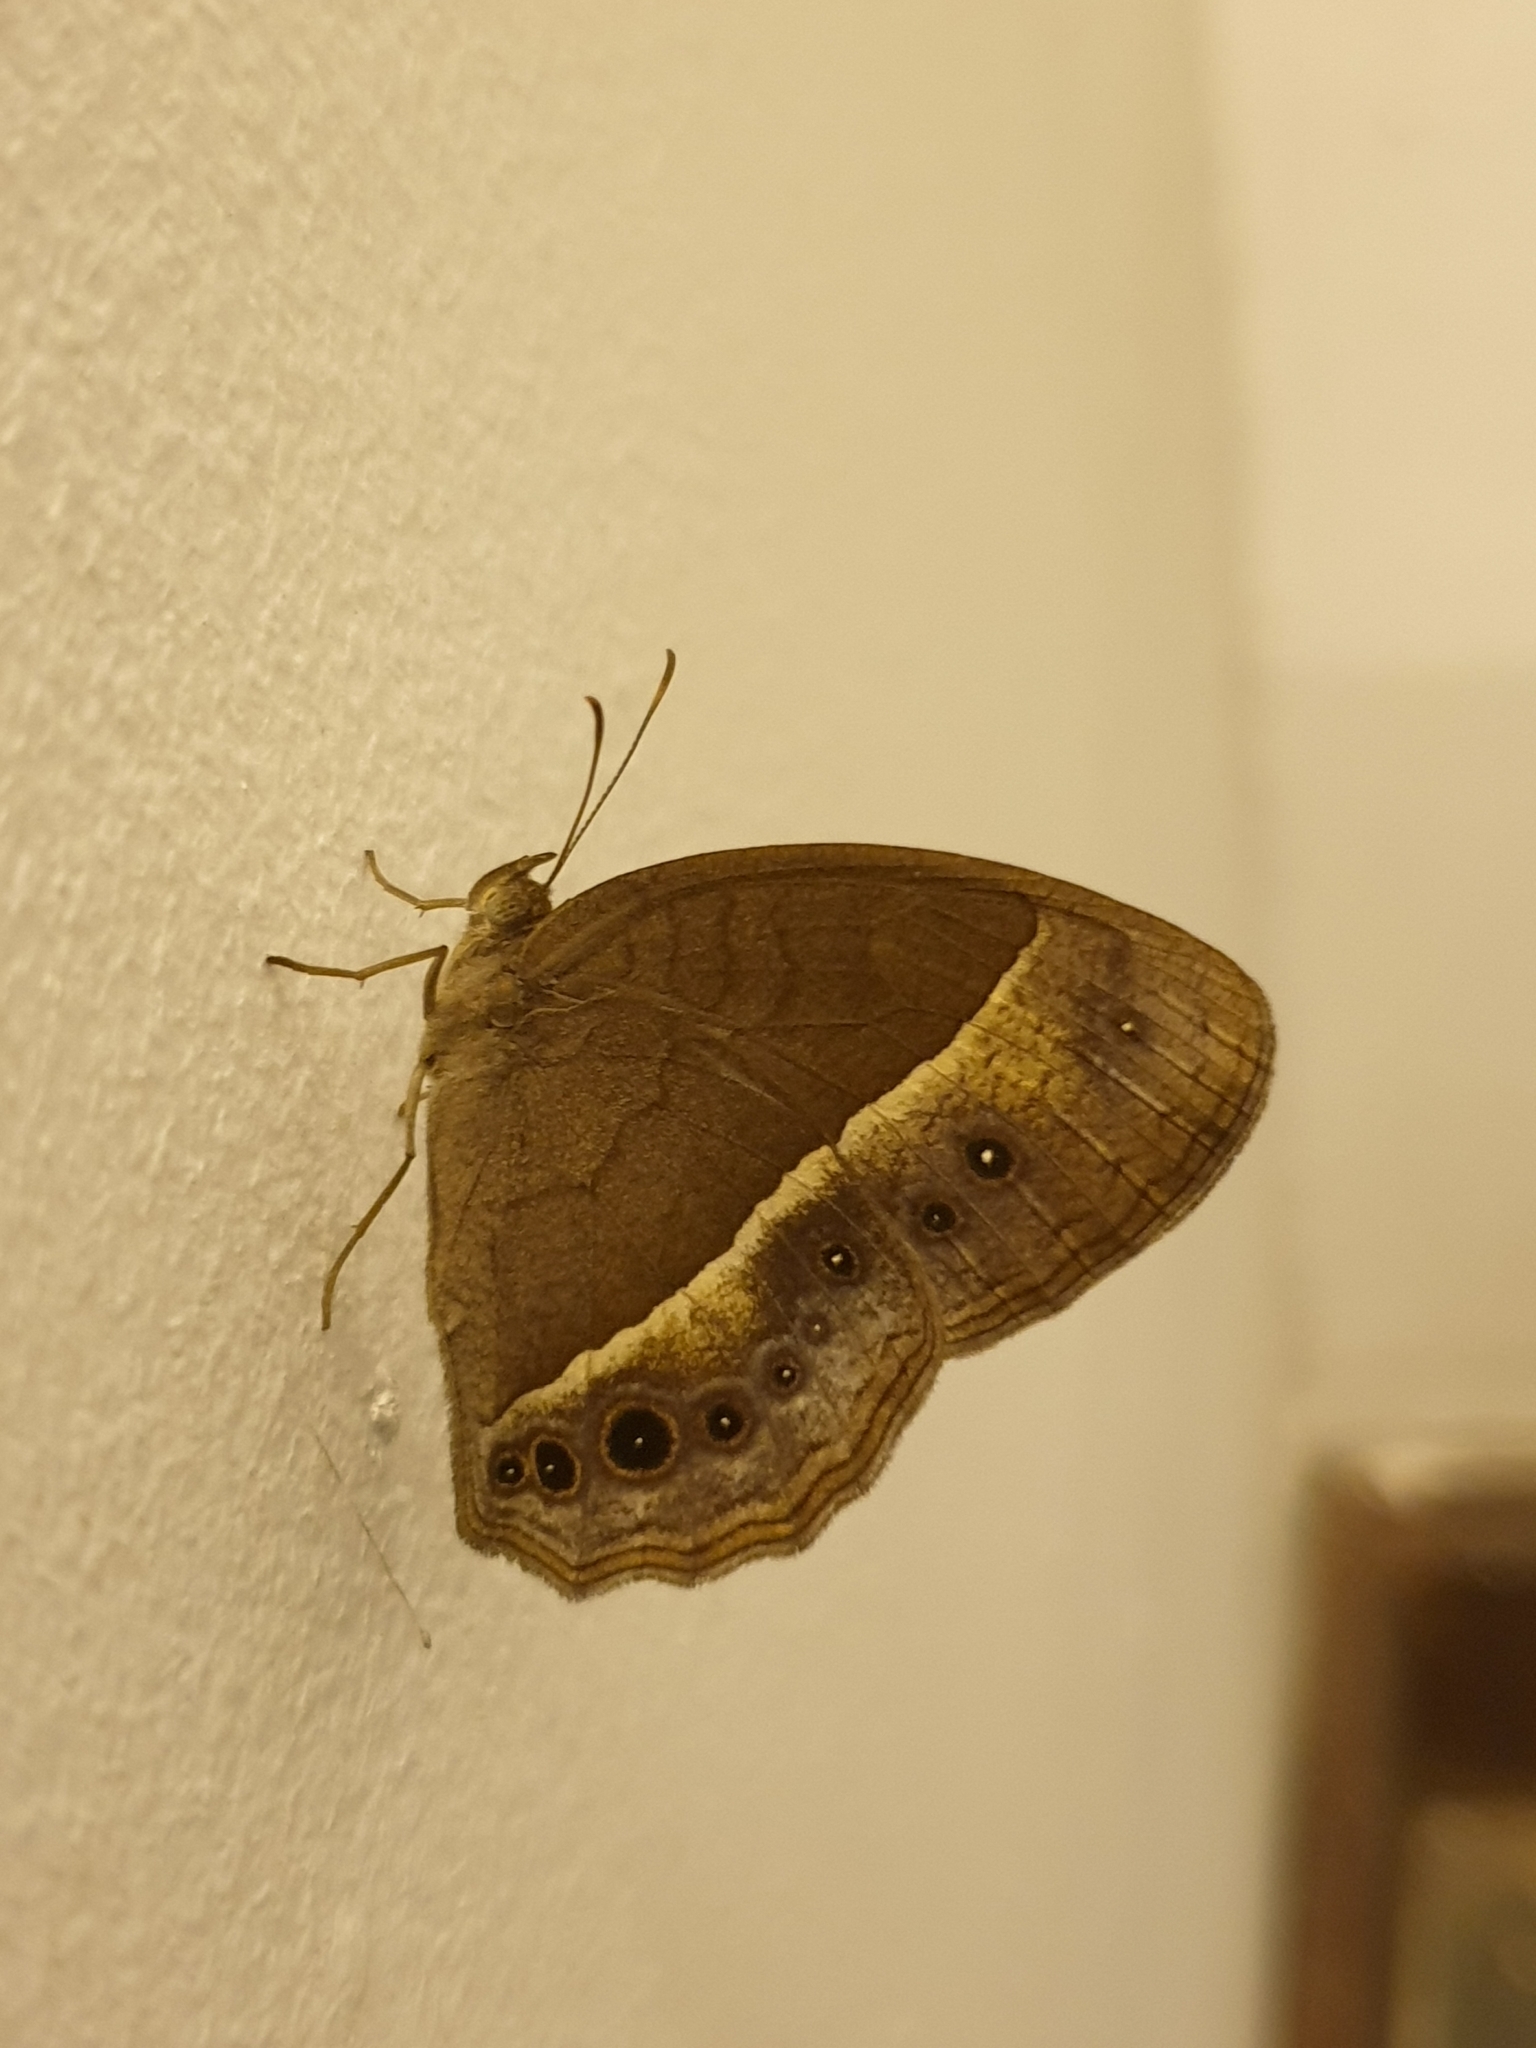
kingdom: Animalia
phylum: Arthropoda
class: Insecta
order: Lepidoptera
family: Nymphalidae
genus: Mycalesis
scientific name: Mycalesis subdita
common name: Tamil bushbrown
